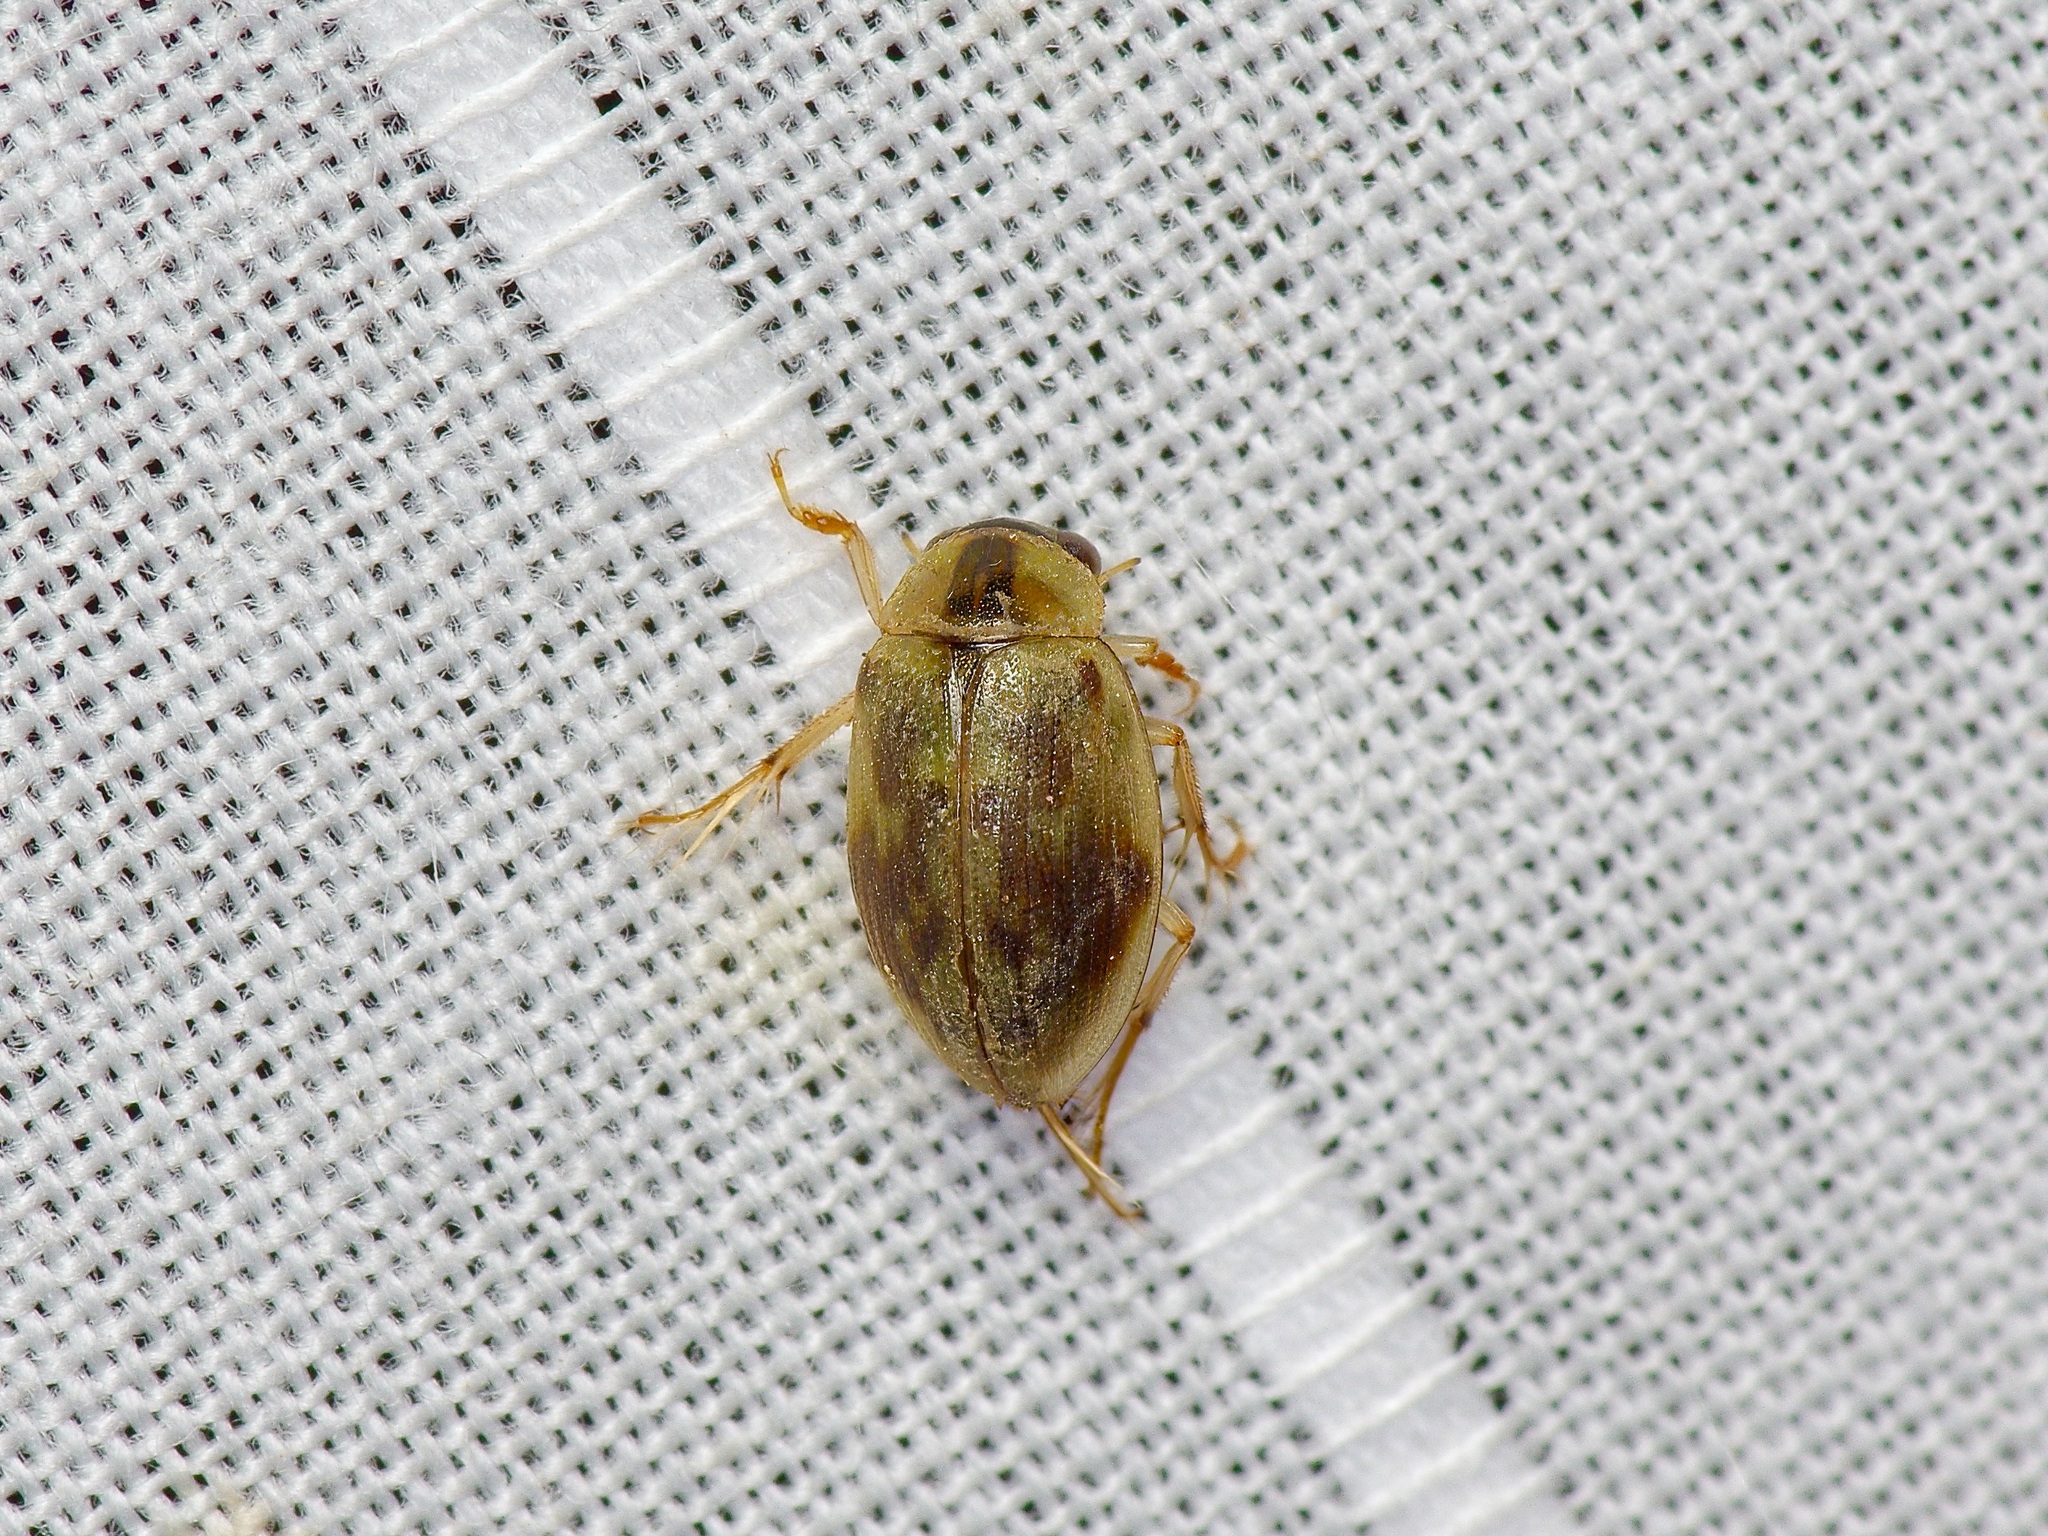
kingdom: Animalia
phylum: Arthropoda
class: Insecta
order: Coleoptera
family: Hydrophilidae
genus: Berosus
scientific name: Berosus miles
